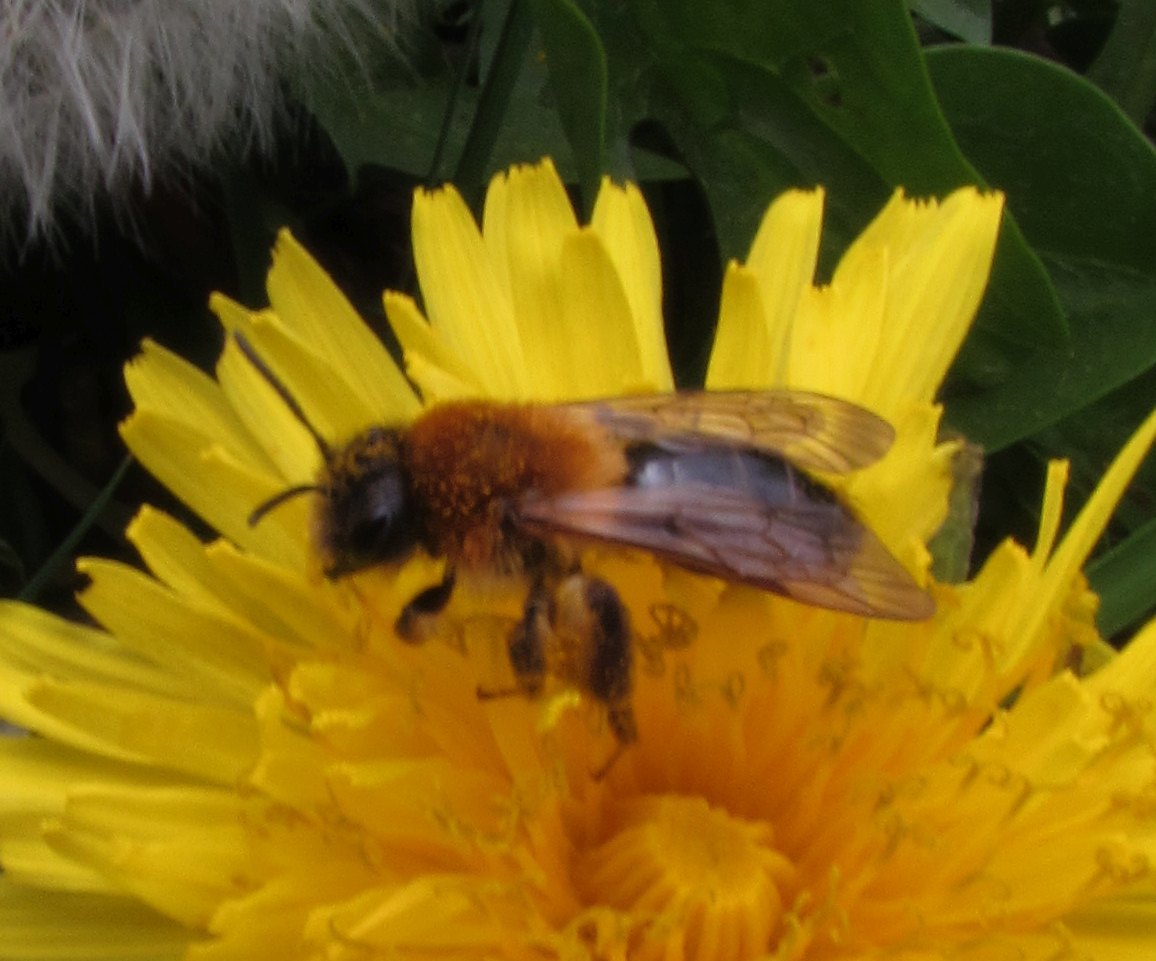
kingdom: Animalia
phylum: Arthropoda
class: Insecta
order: Hymenoptera
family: Andrenidae
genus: Andrena
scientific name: Andrena nitida
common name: Grey-patched mining bee
